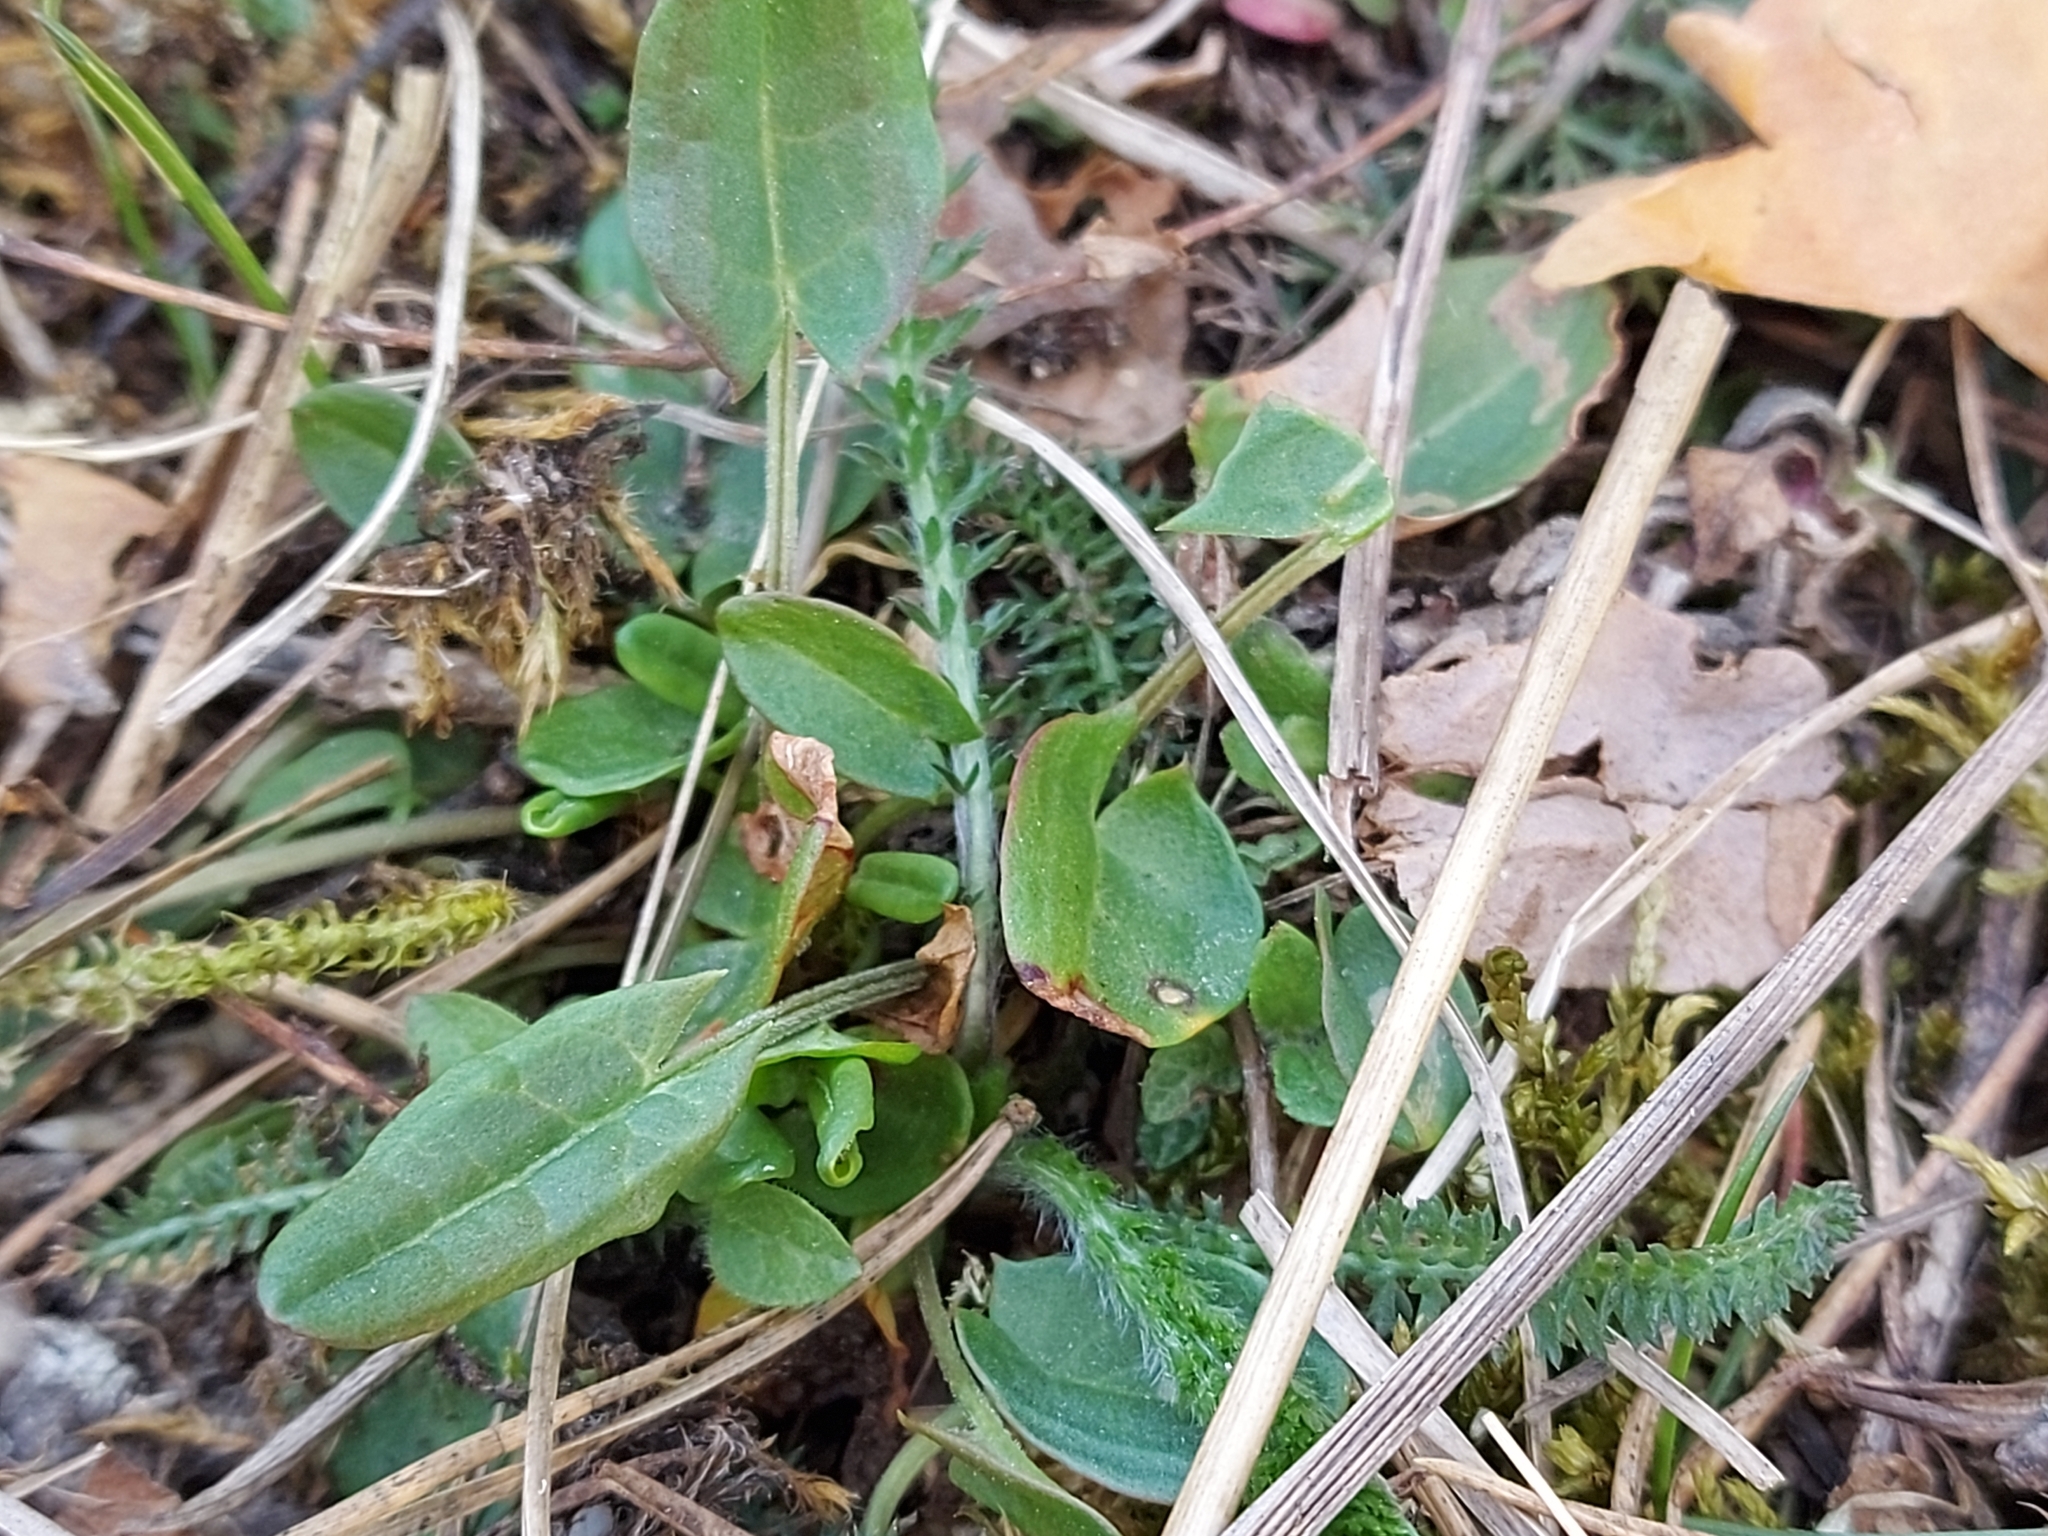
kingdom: Plantae
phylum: Tracheophyta
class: Magnoliopsida
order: Caryophyllales
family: Polygonaceae
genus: Rumex
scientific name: Rumex acetosa
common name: Garden sorrel
